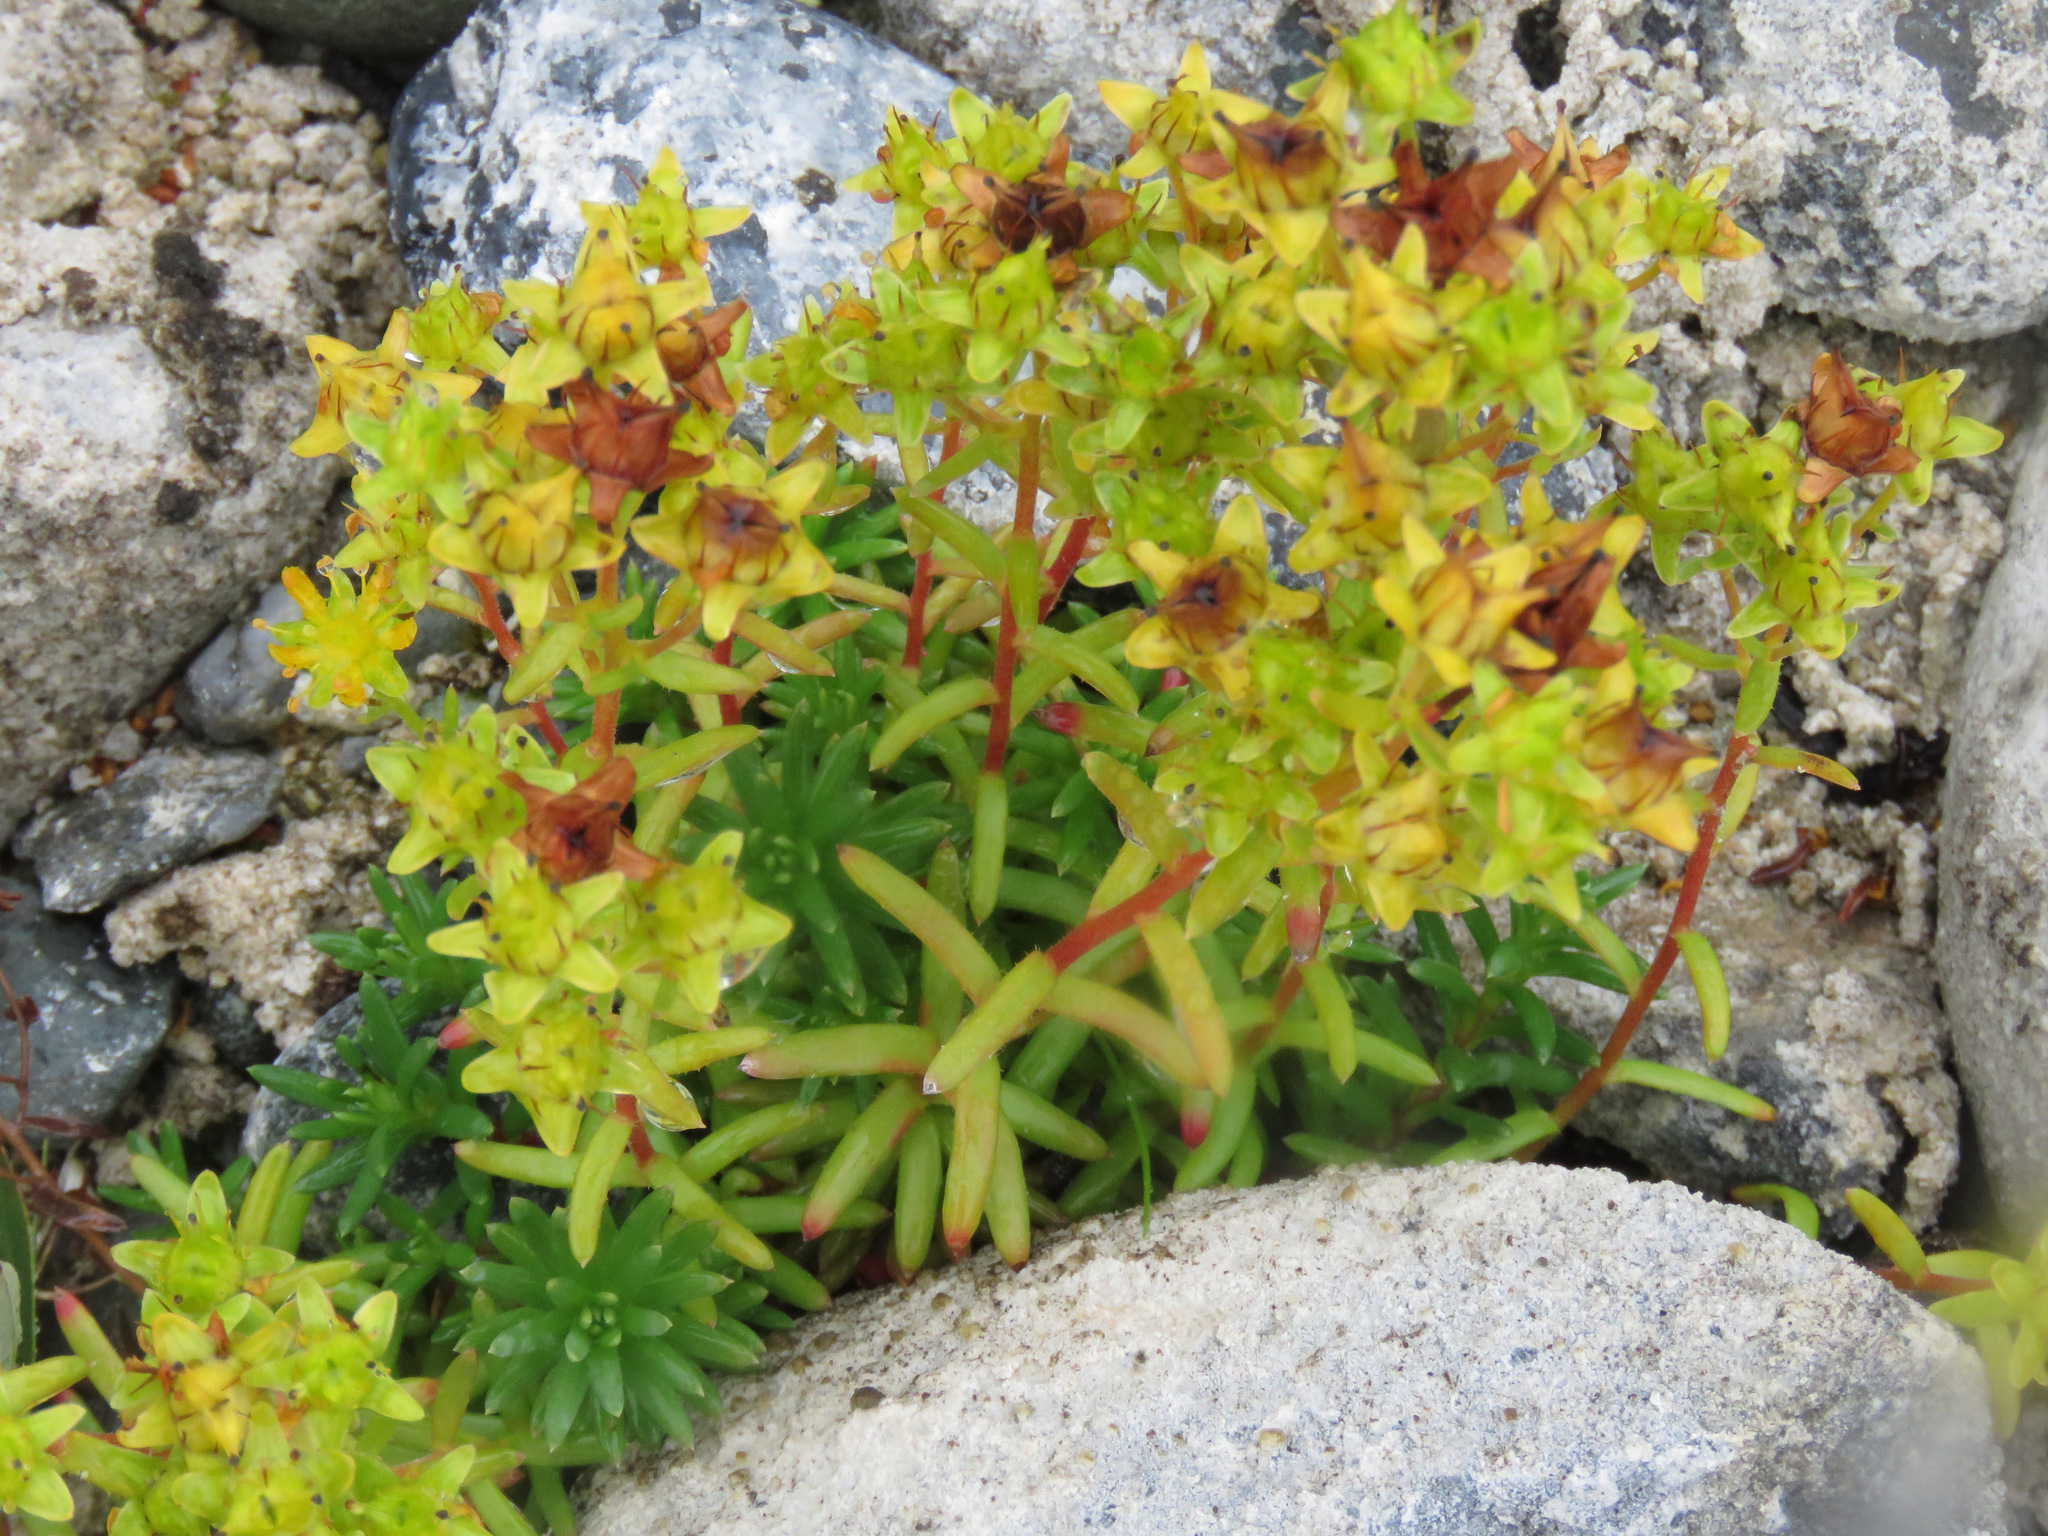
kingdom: Plantae
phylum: Tracheophyta
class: Magnoliopsida
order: Saxifragales
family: Saxifragaceae
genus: Saxifraga
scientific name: Saxifraga aizoides
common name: Yellow mountain saxifrage
